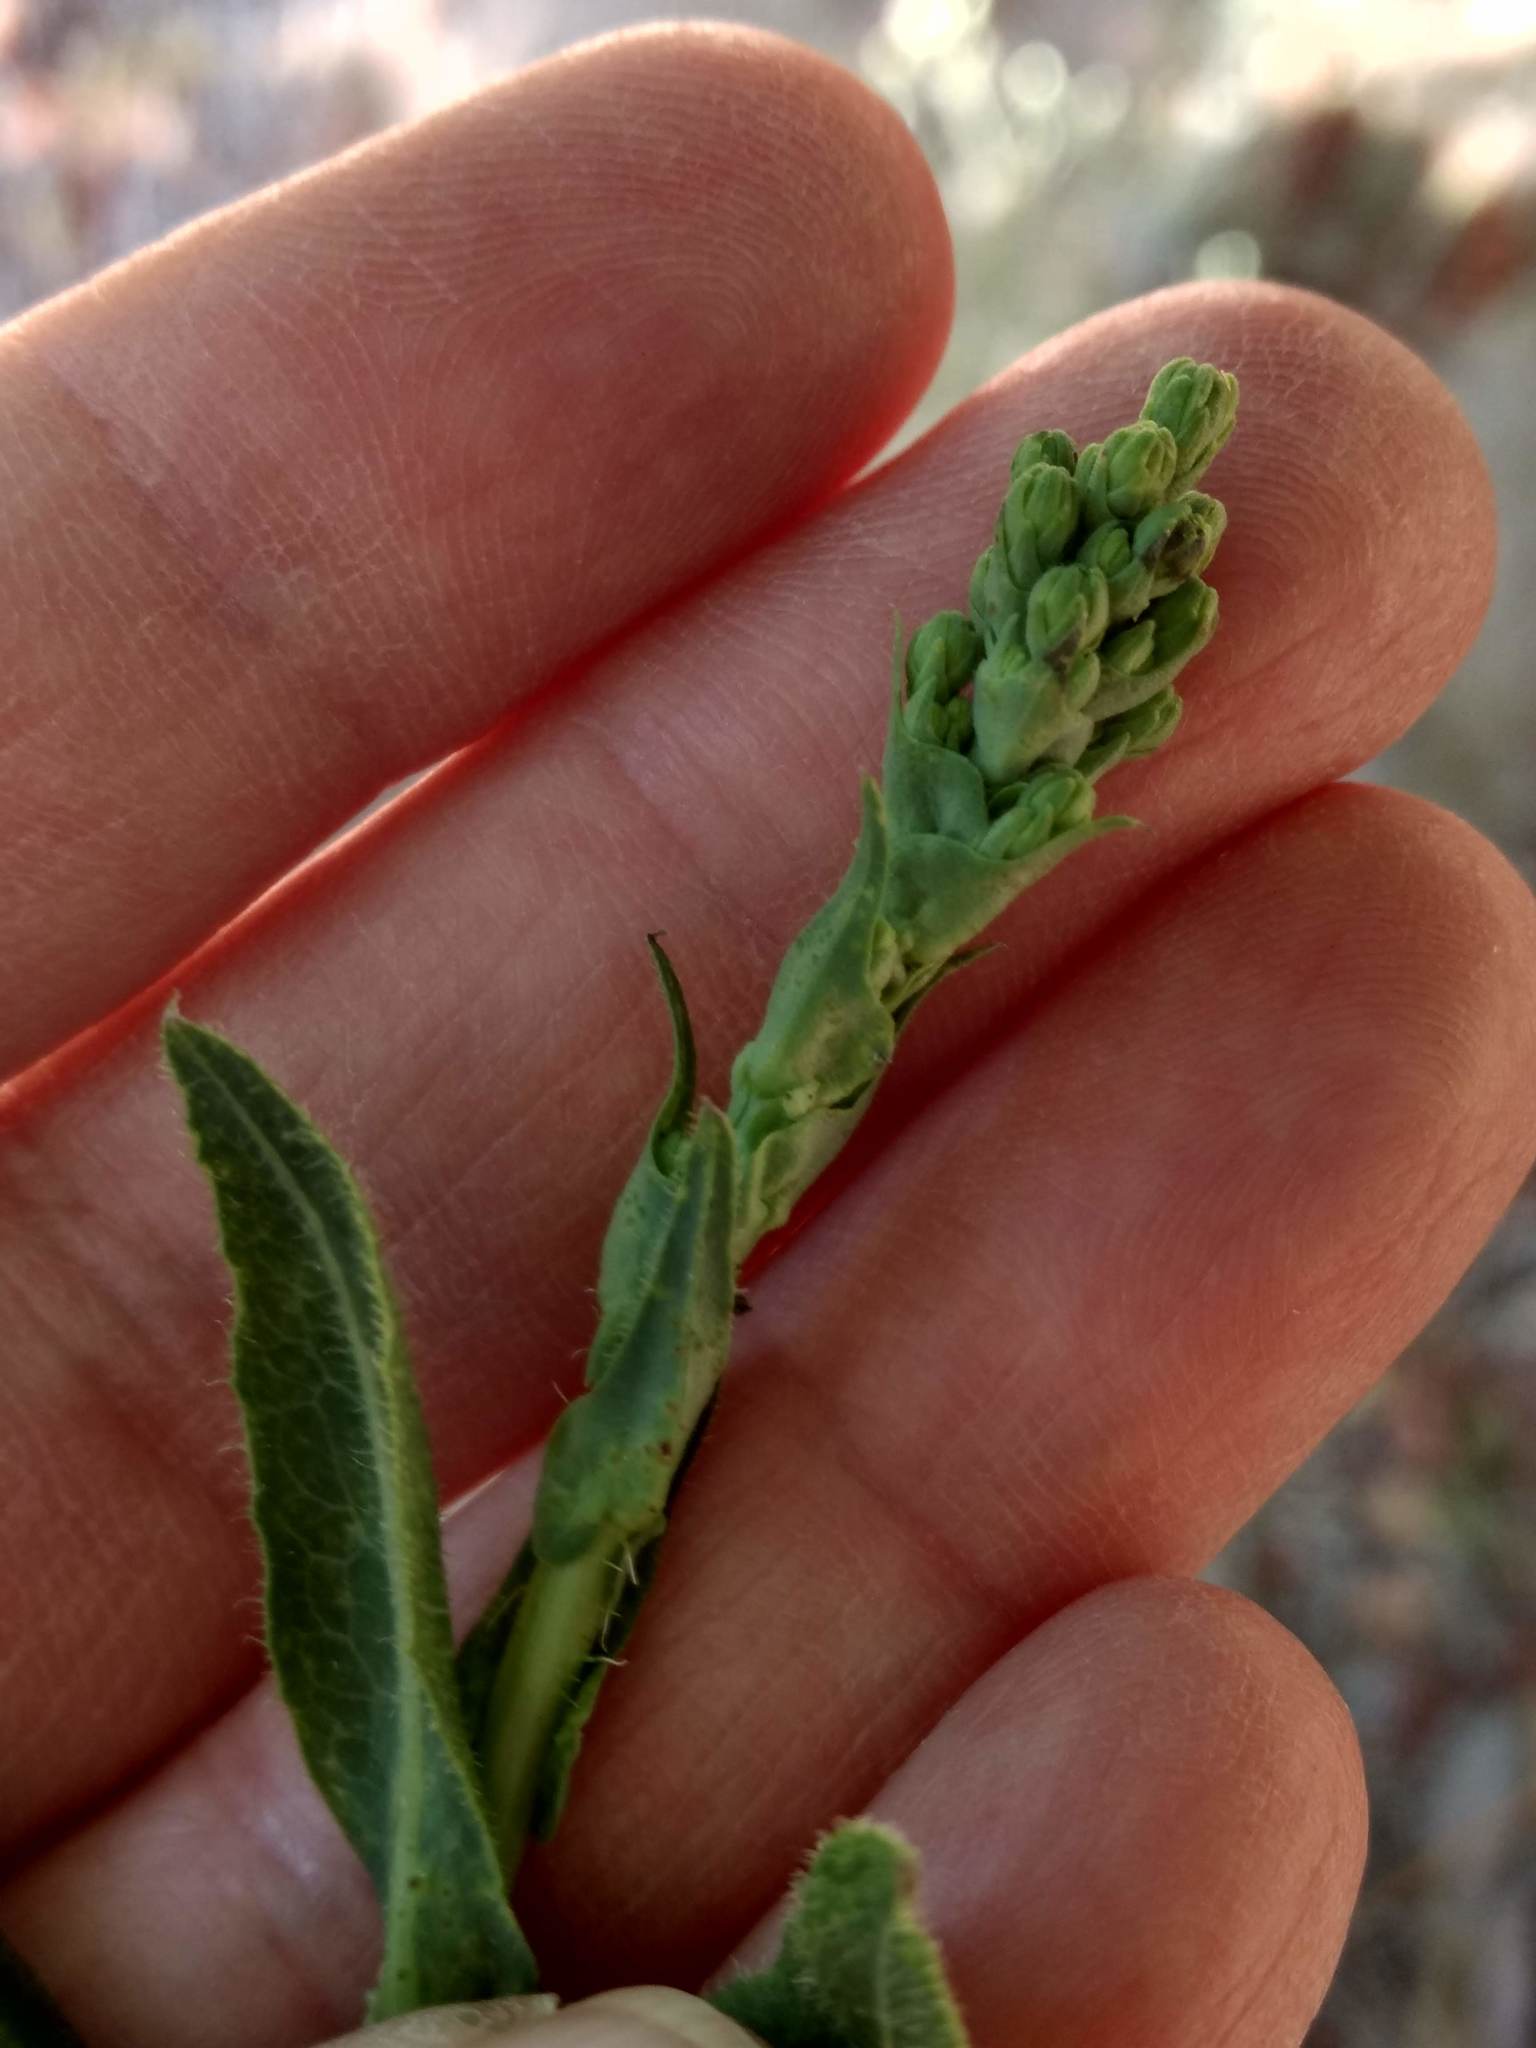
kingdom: Plantae
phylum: Tracheophyta
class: Magnoliopsida
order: Asterales
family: Asteraceae
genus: Lactuca
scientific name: Lactuca serriola
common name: Prickly lettuce
